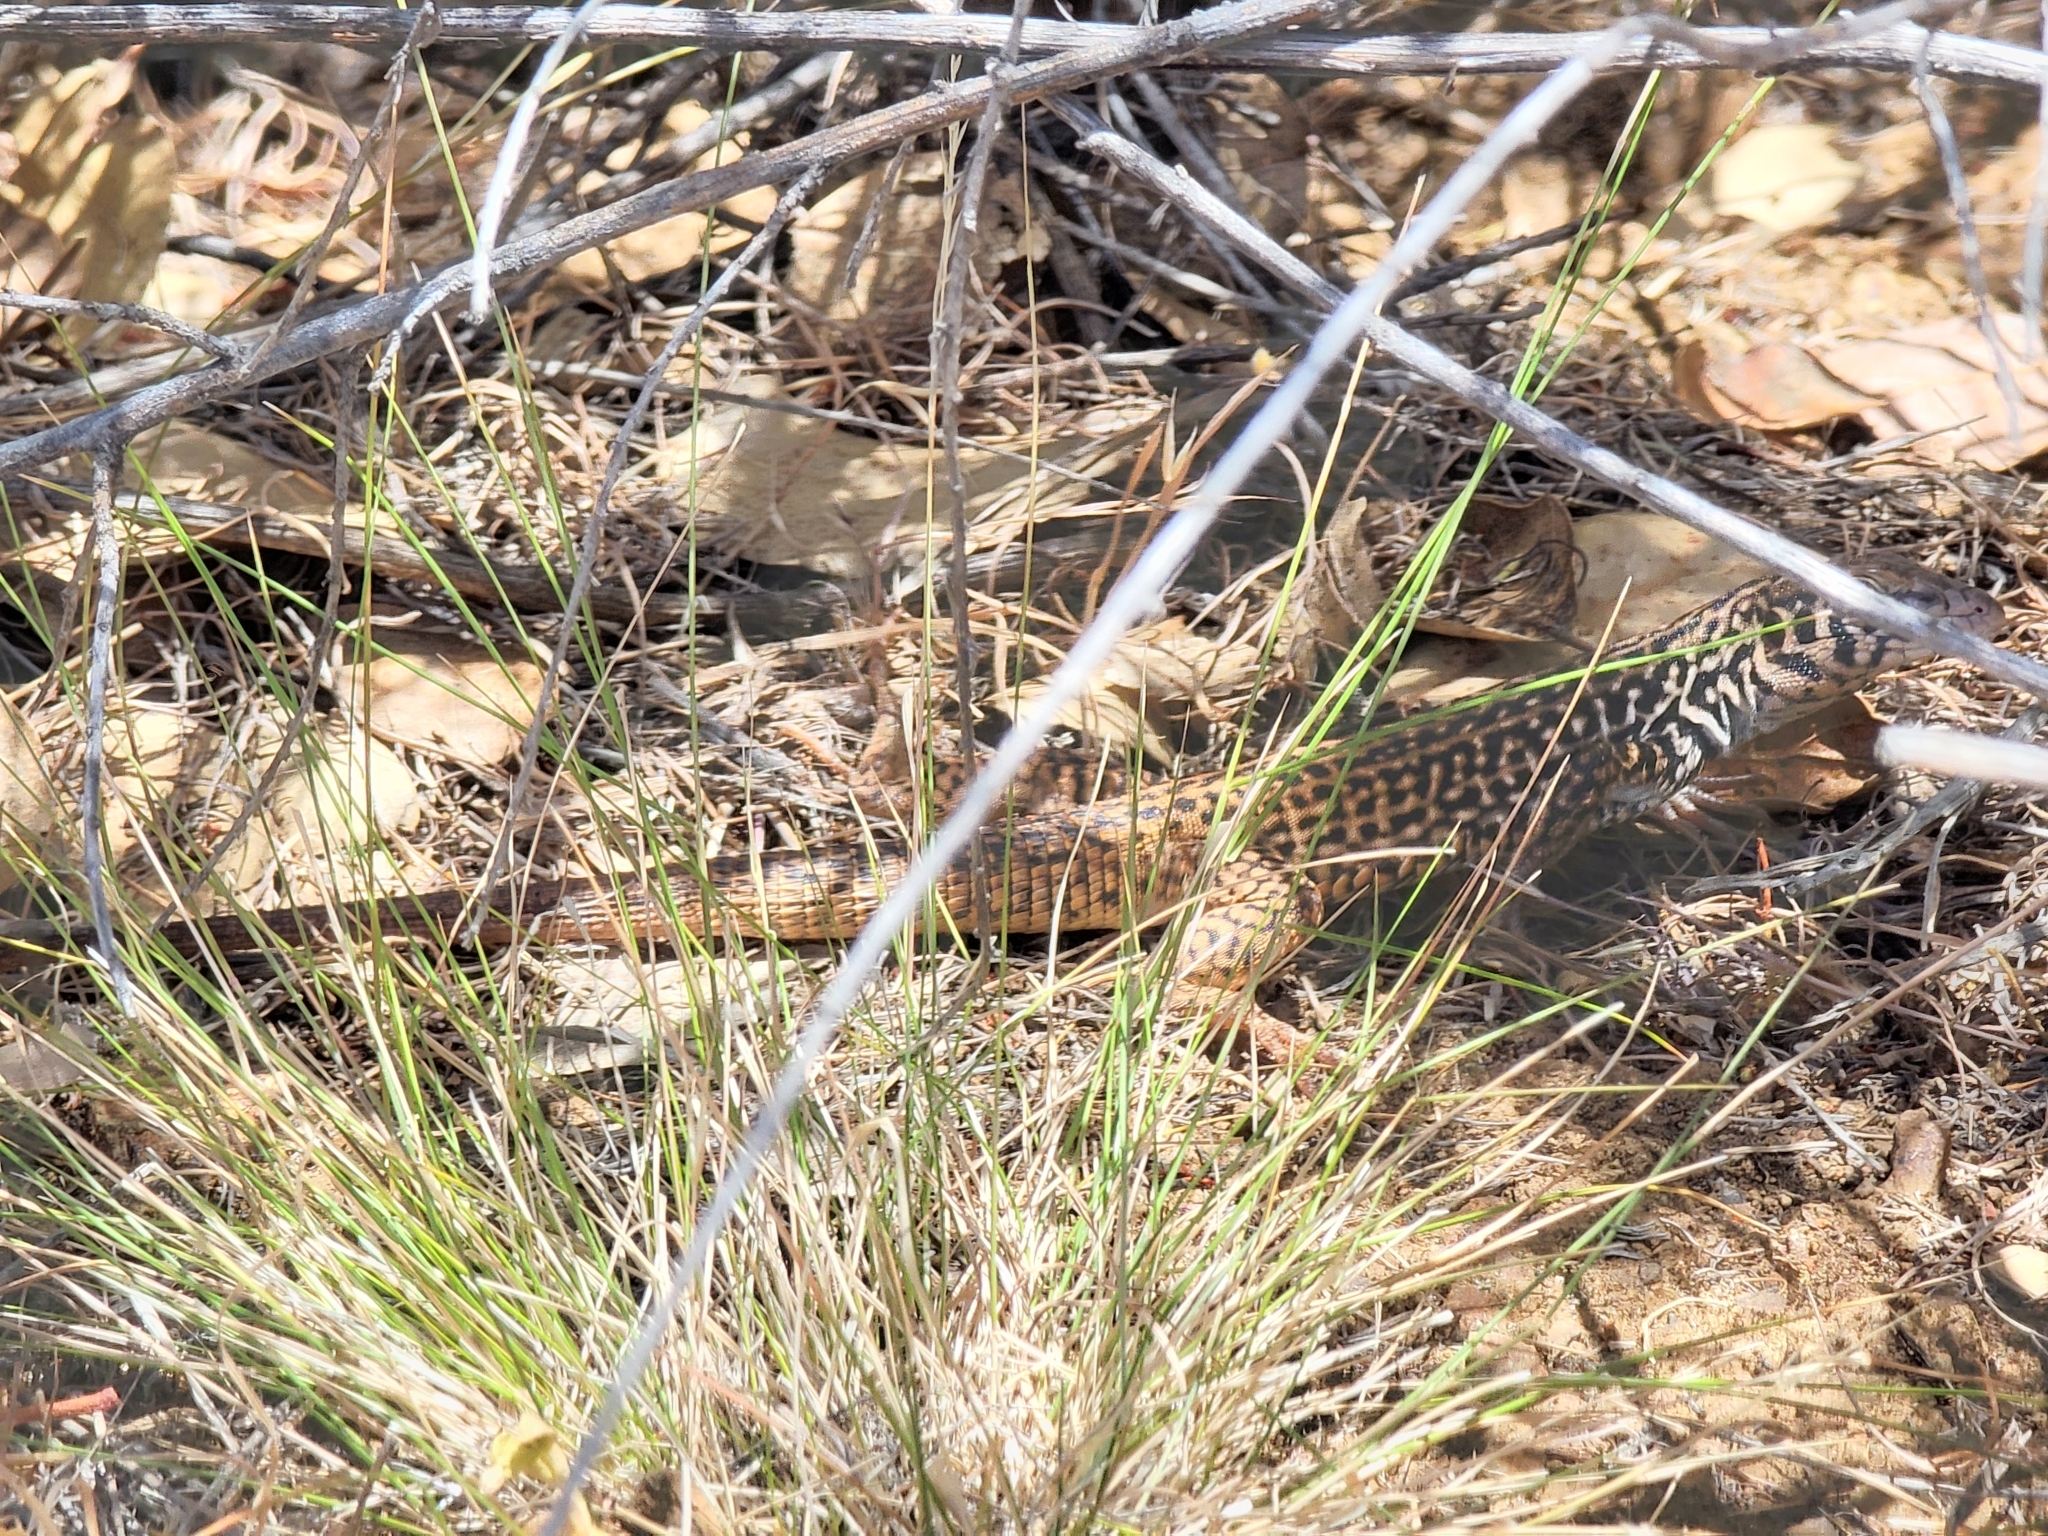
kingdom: Animalia
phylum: Chordata
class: Squamata
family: Teiidae
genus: Aspidoscelis
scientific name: Aspidoscelis tigris
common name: Tiger whiptail
